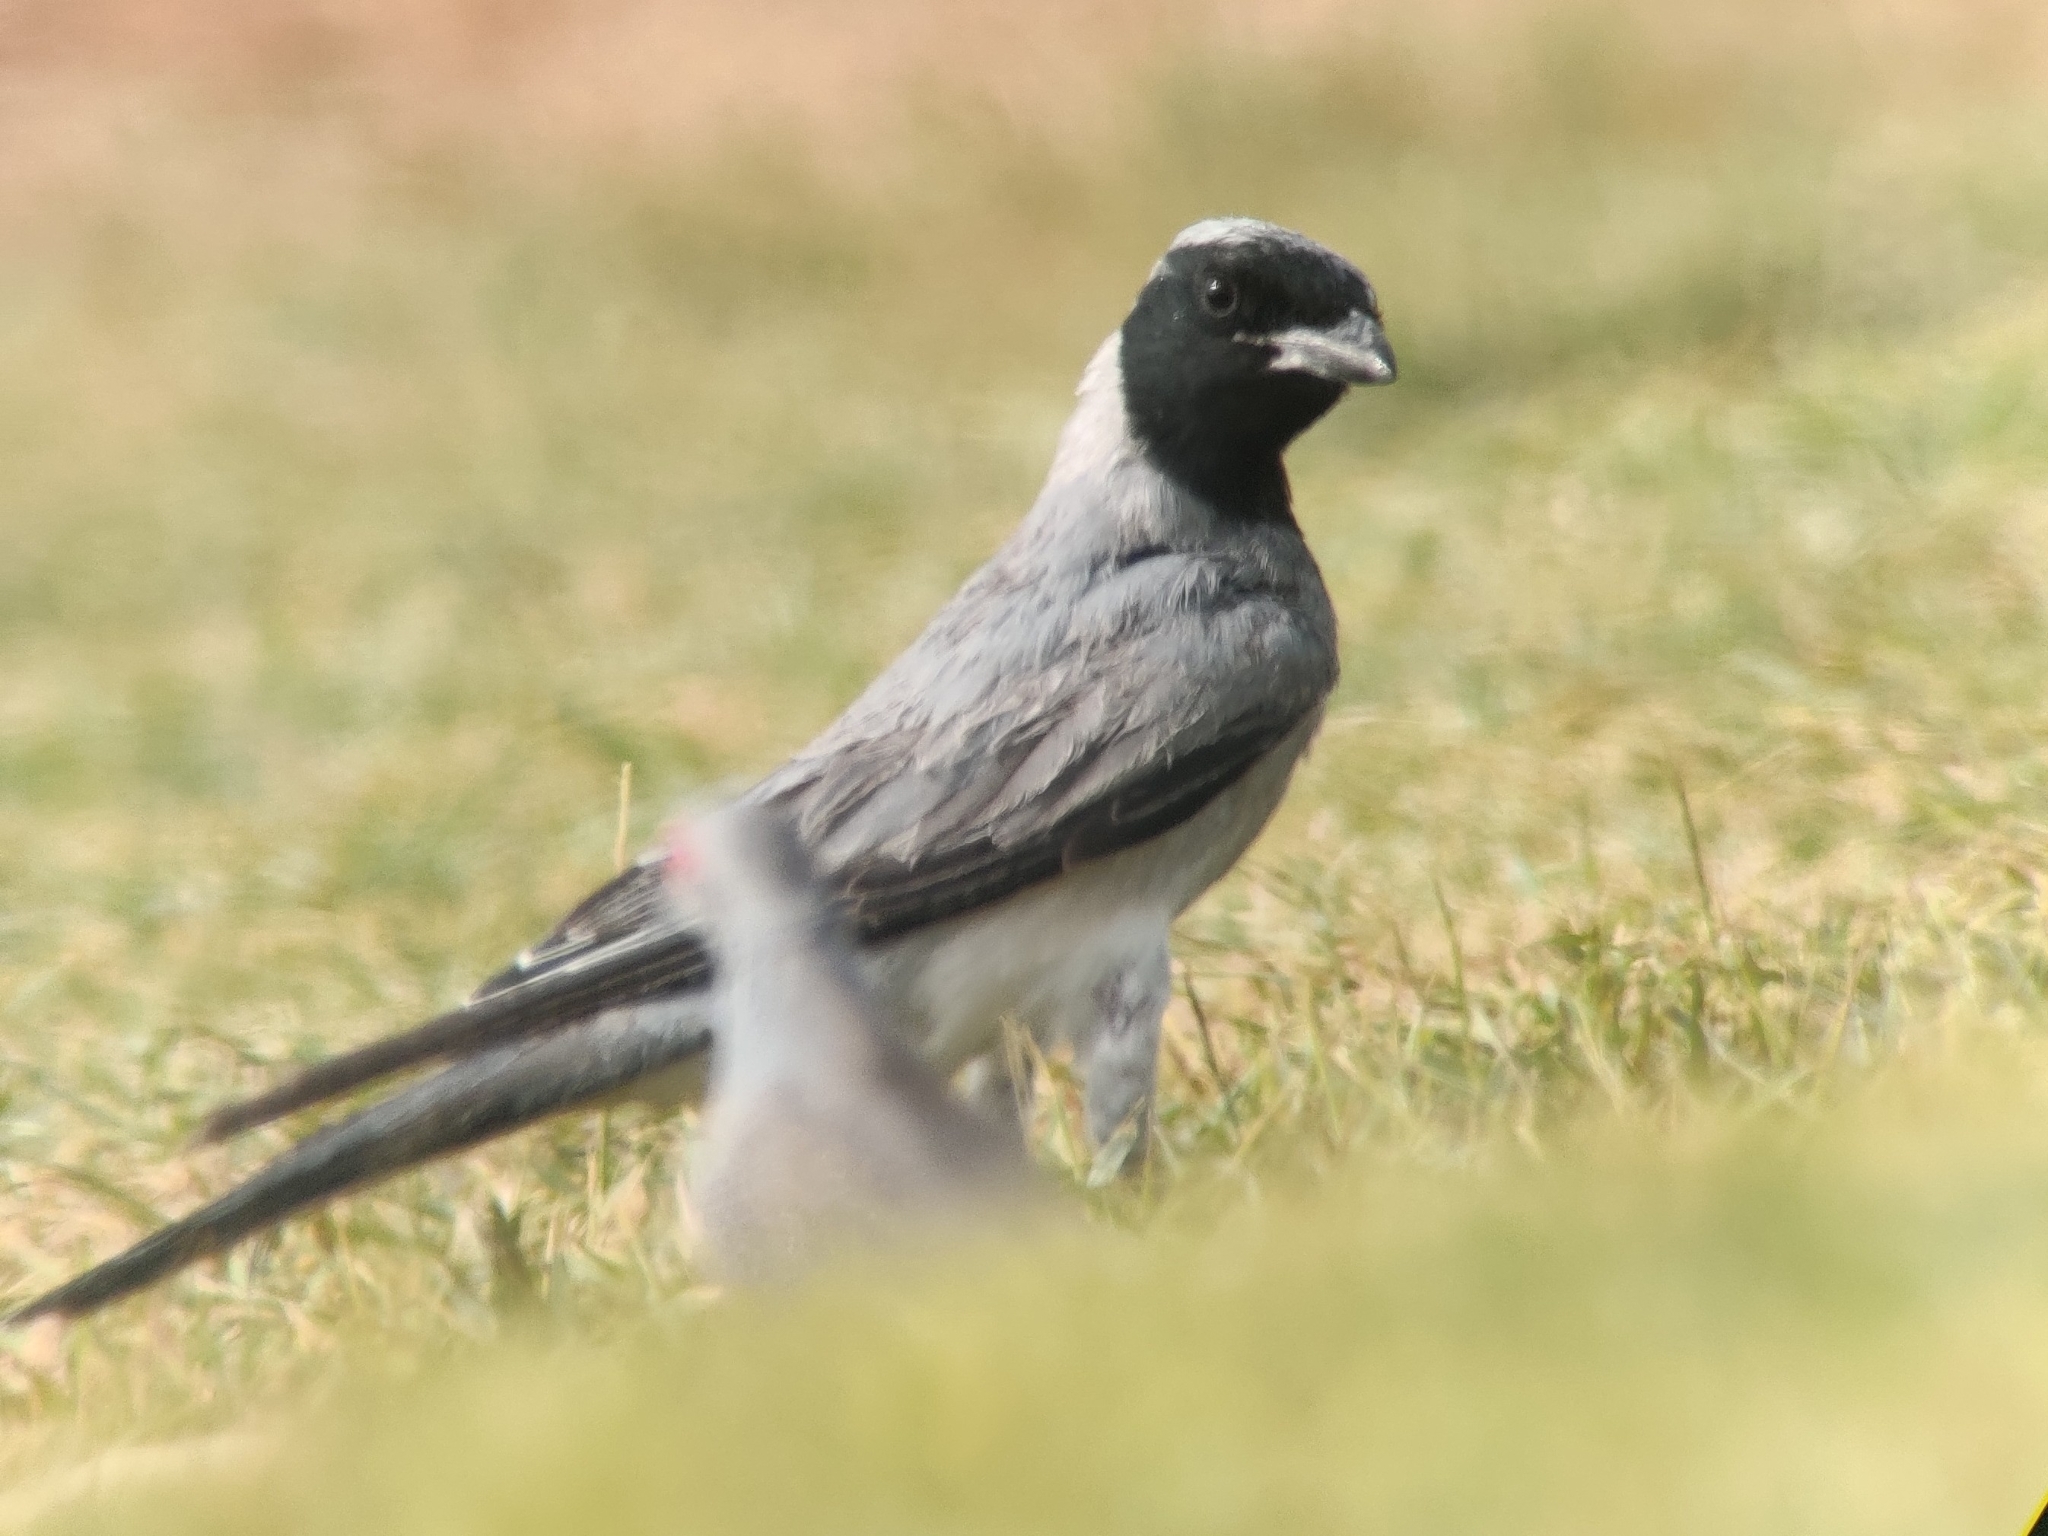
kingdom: Animalia
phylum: Chordata
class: Aves
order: Passeriformes
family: Campephagidae
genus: Coracina
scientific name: Coracina novaehollandiae
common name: Black-faced cuckooshrike
